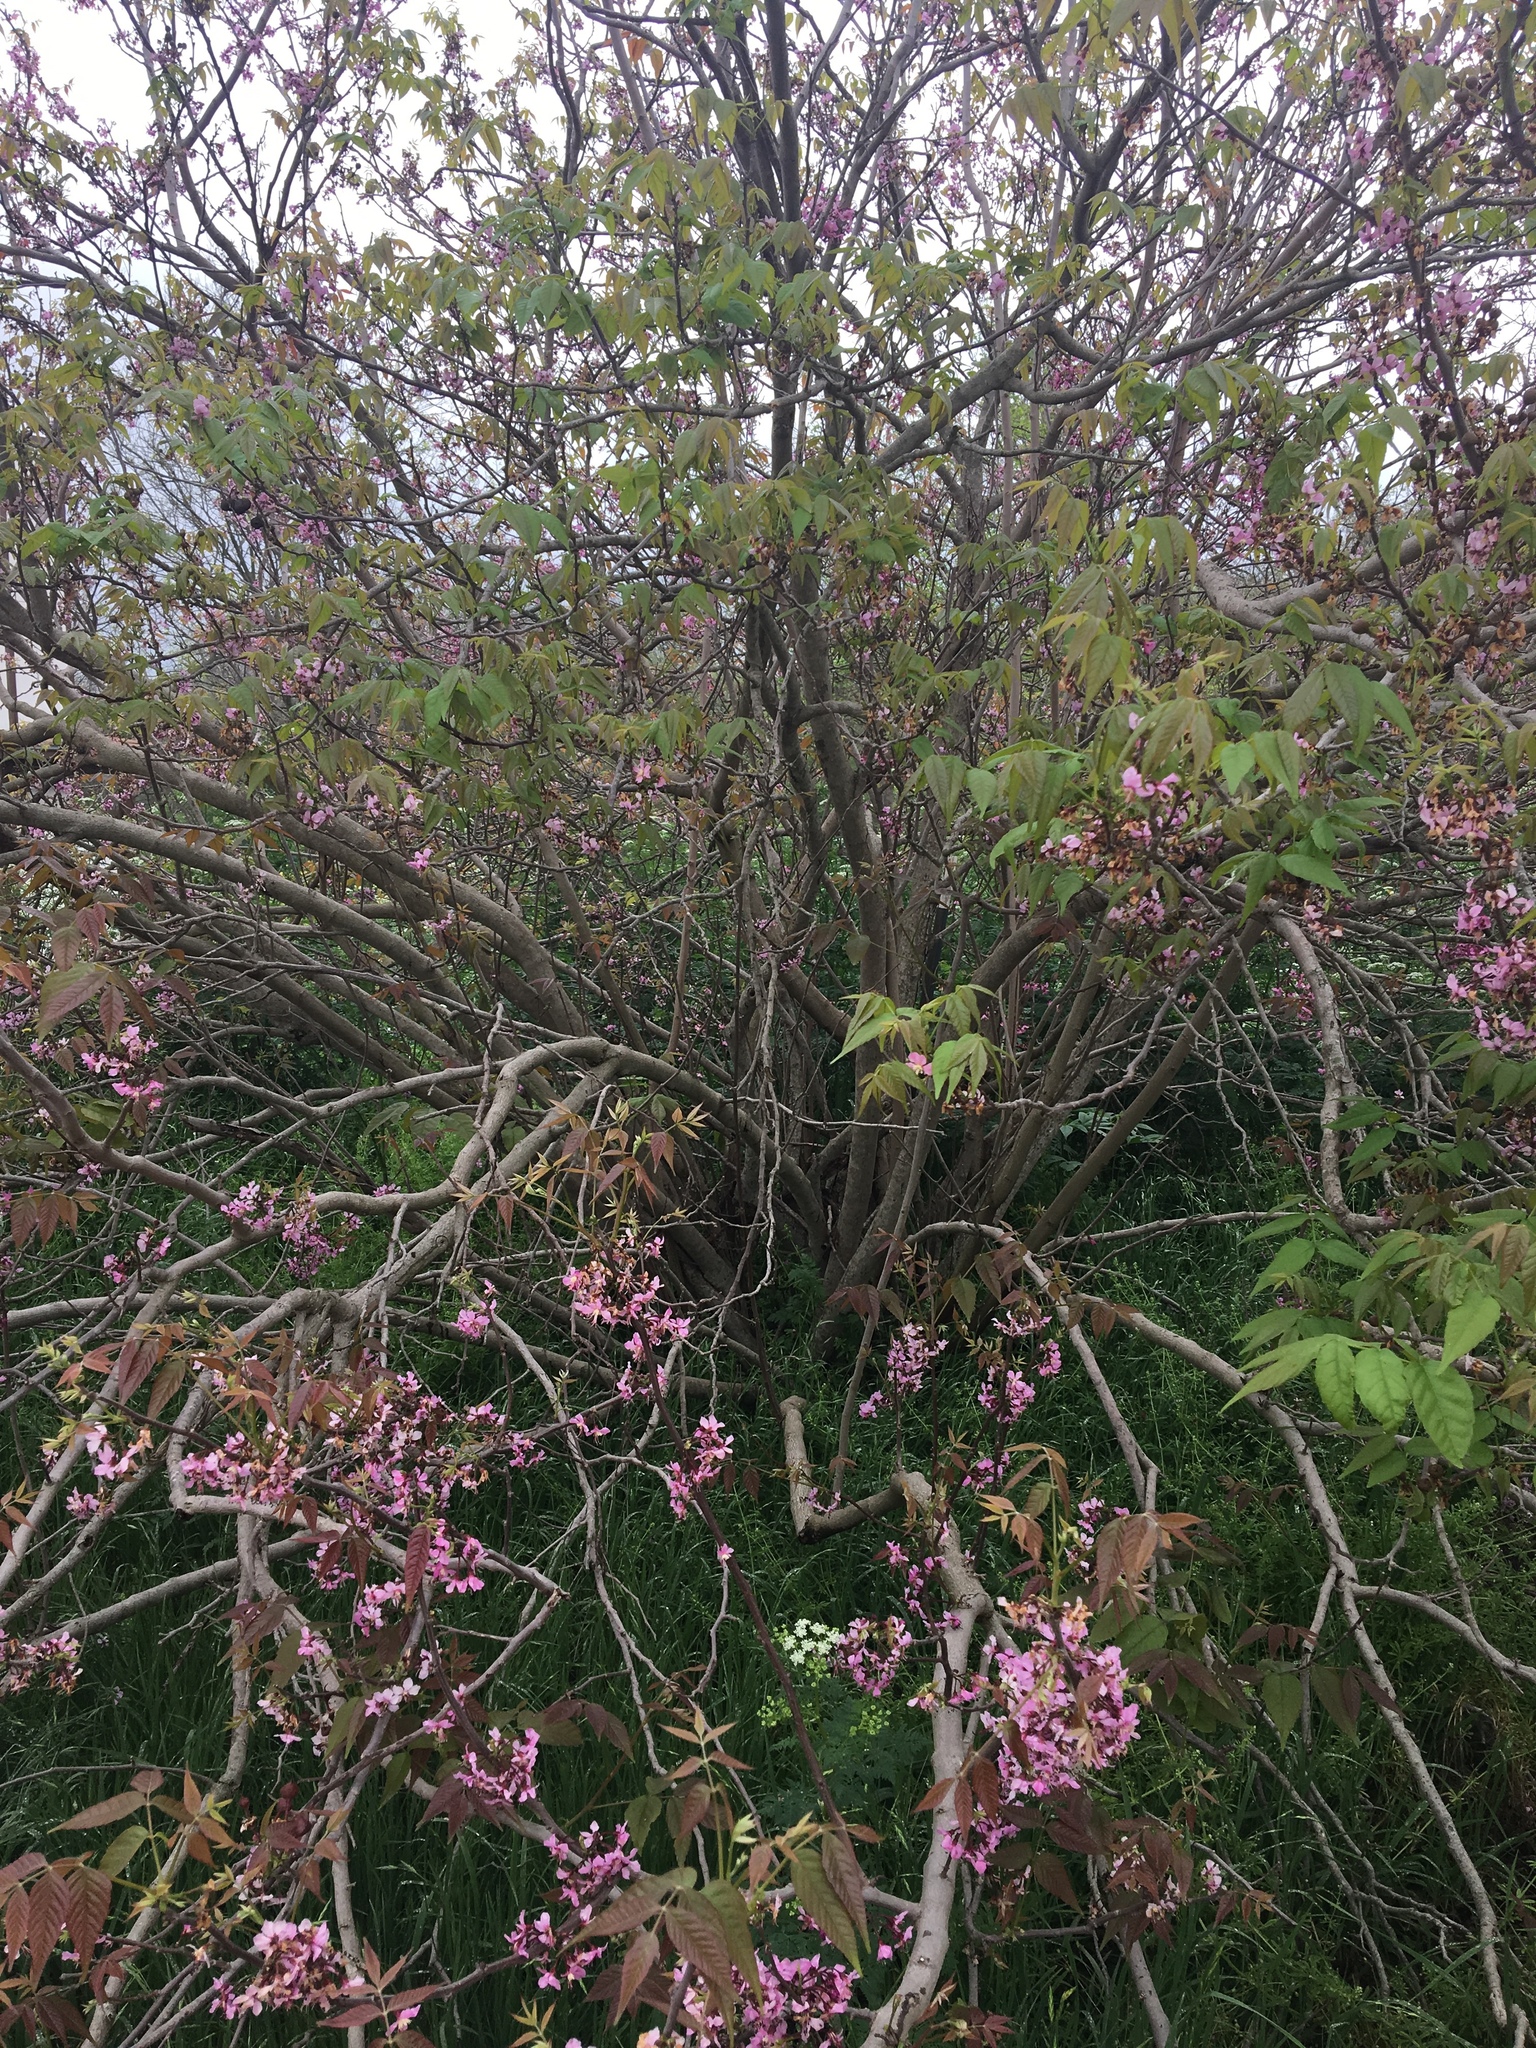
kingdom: Plantae
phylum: Tracheophyta
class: Magnoliopsida
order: Sapindales
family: Sapindaceae
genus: Ungnadia
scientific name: Ungnadia speciosa
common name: Texas-buckeye
